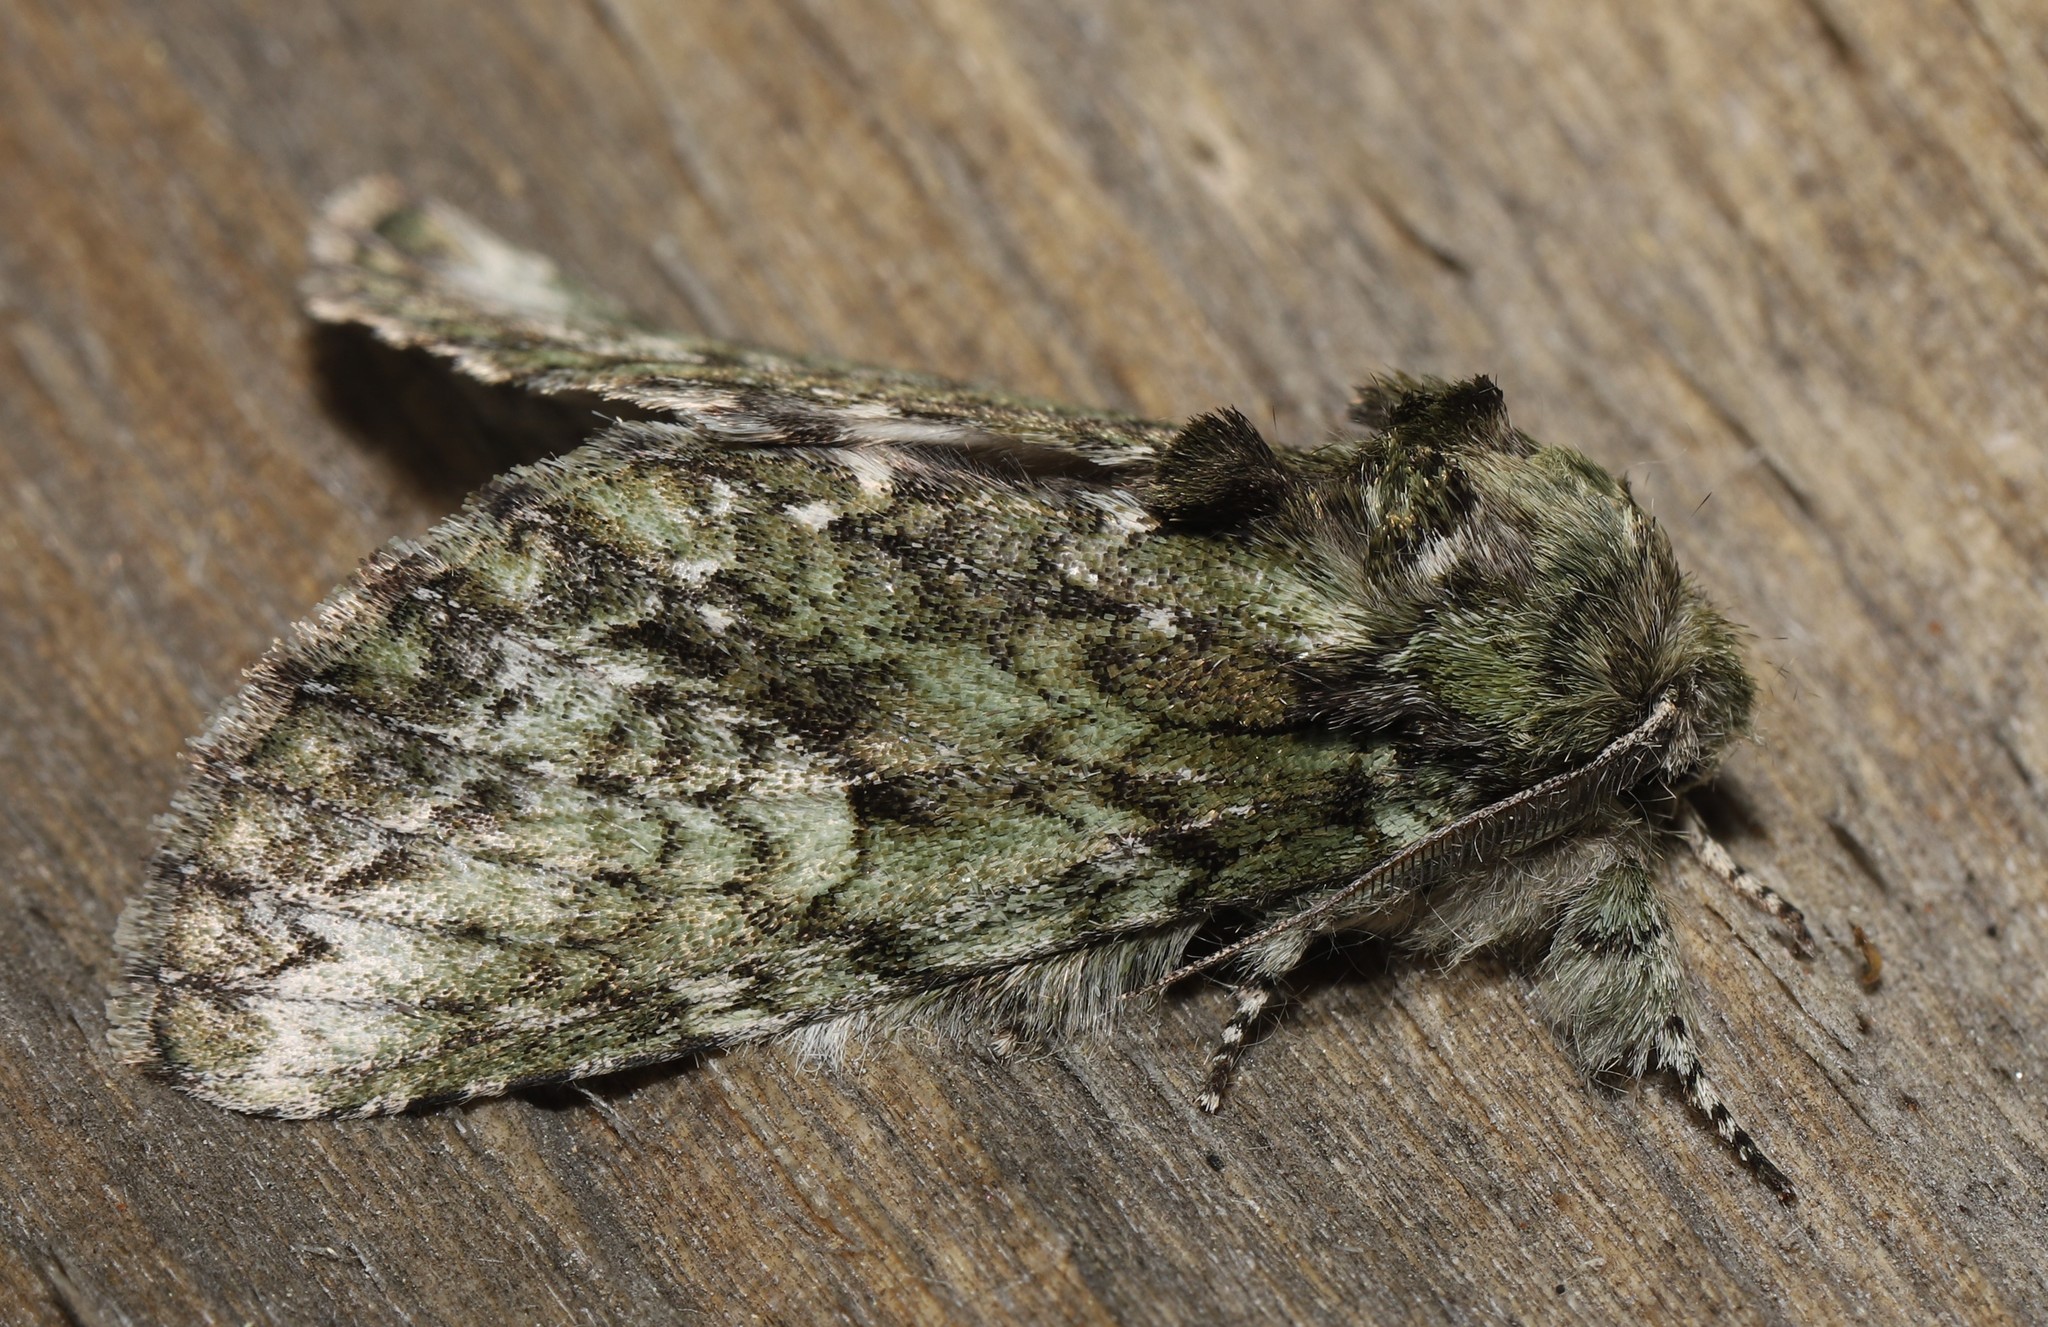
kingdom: Animalia
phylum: Arthropoda
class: Insecta
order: Lepidoptera
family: Notodontidae
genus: Heterocampa
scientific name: Heterocampa
